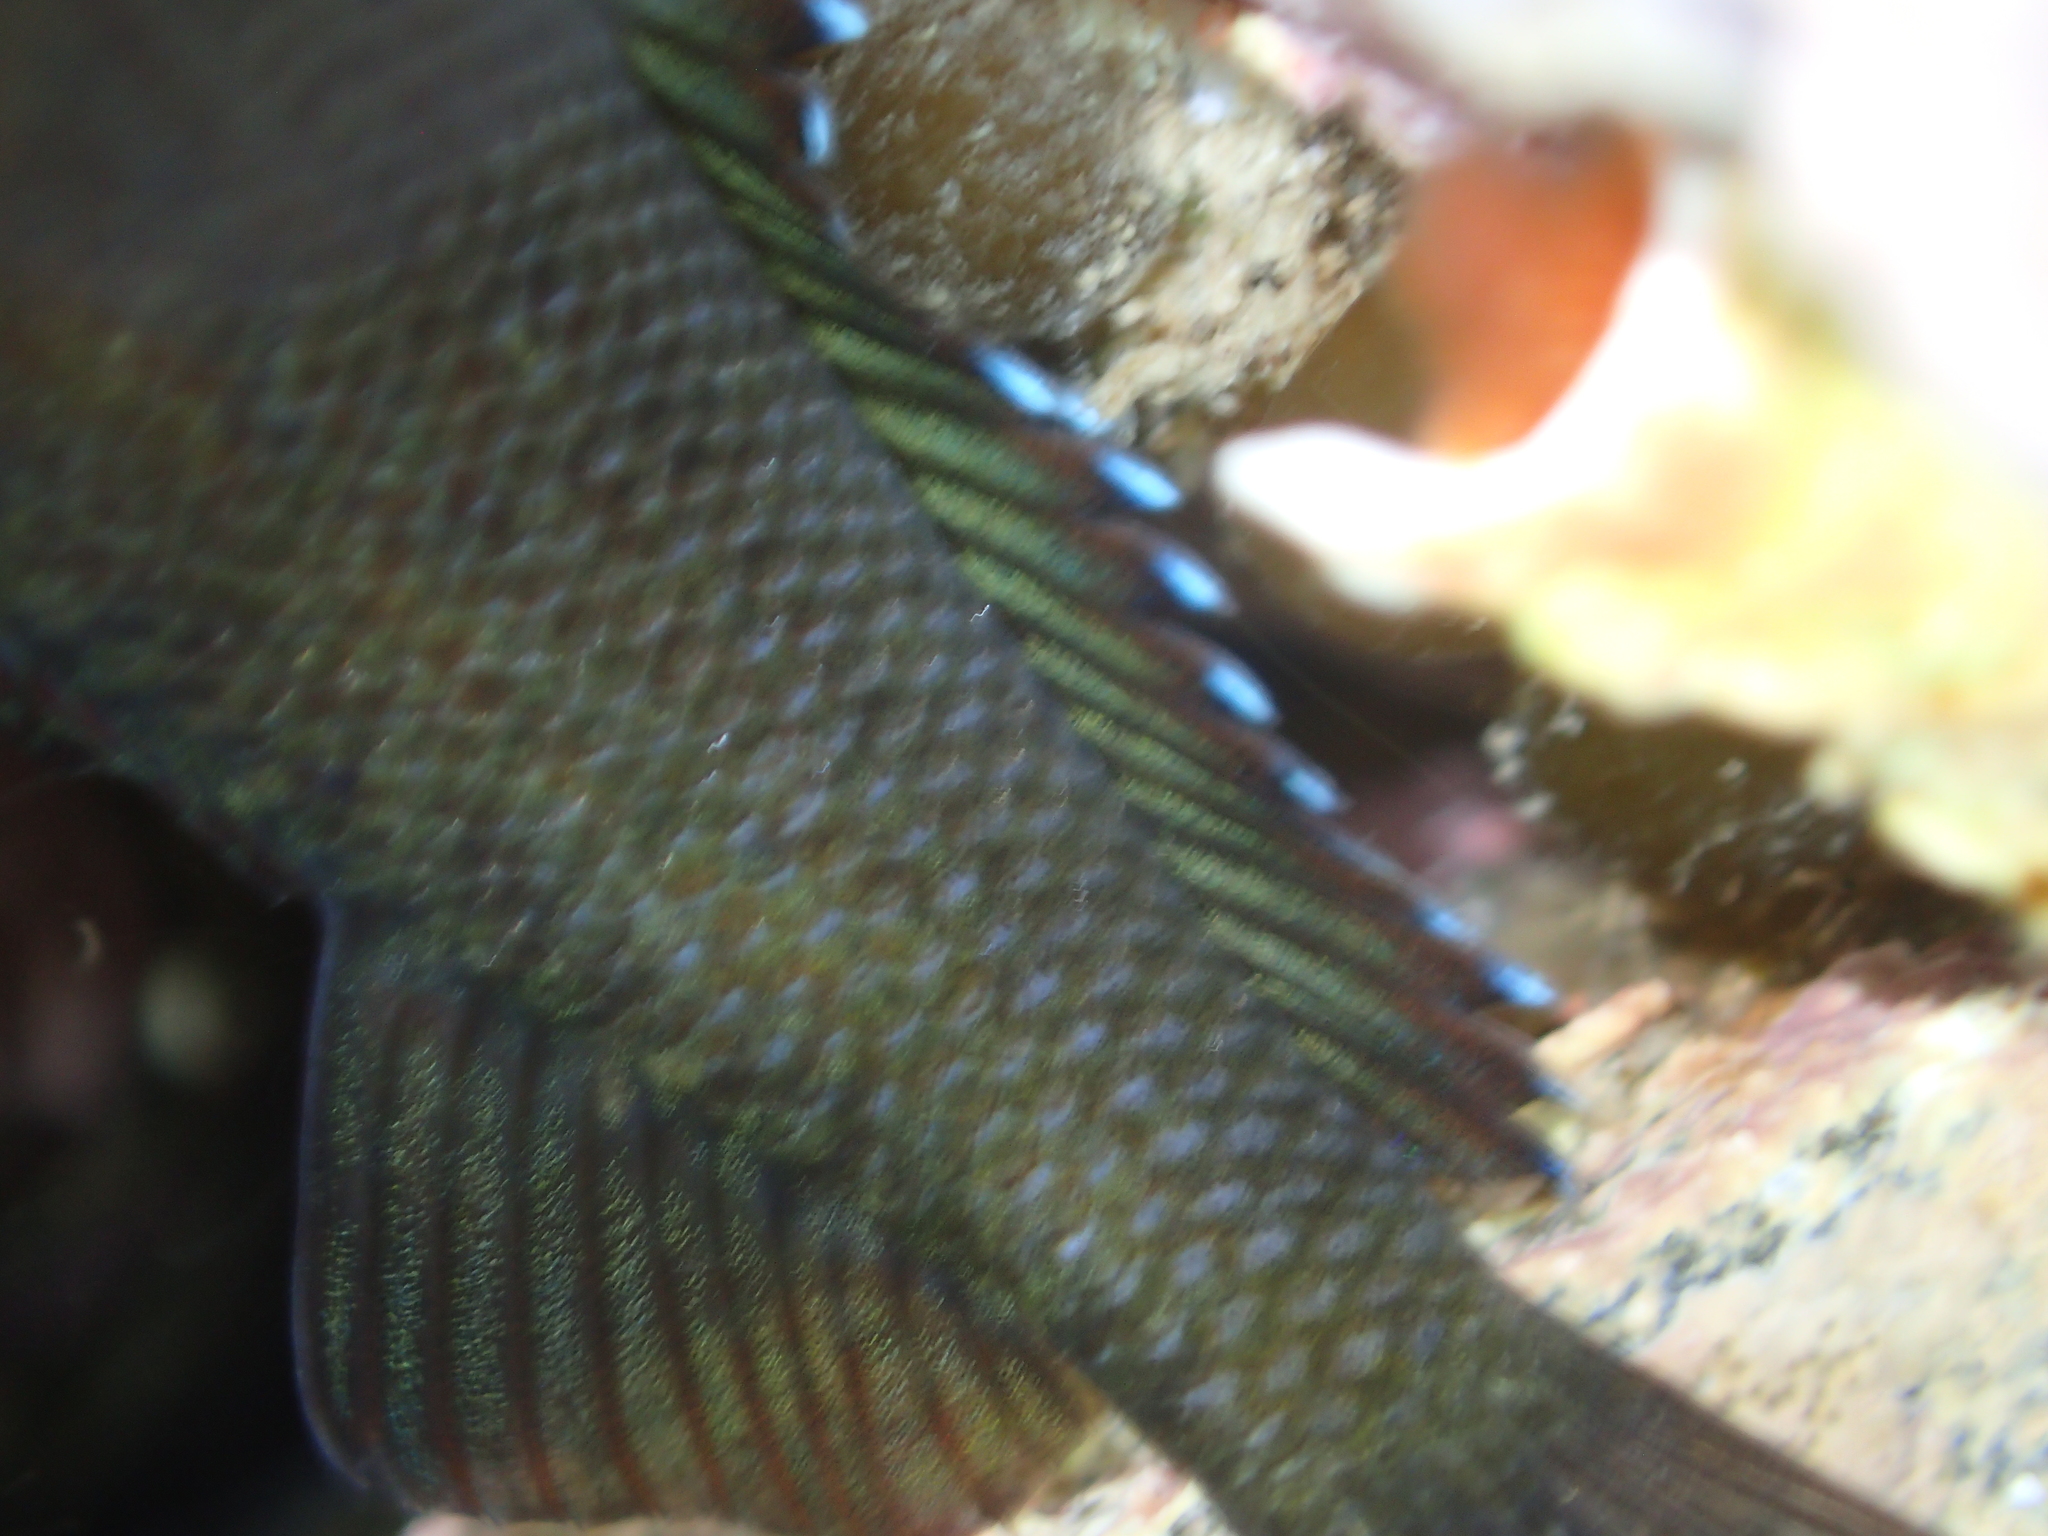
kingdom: Animalia
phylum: Chordata
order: Perciformes
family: Tripterygiidae
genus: Forsterygion
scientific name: Forsterygion lapillum
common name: Common triplefin
